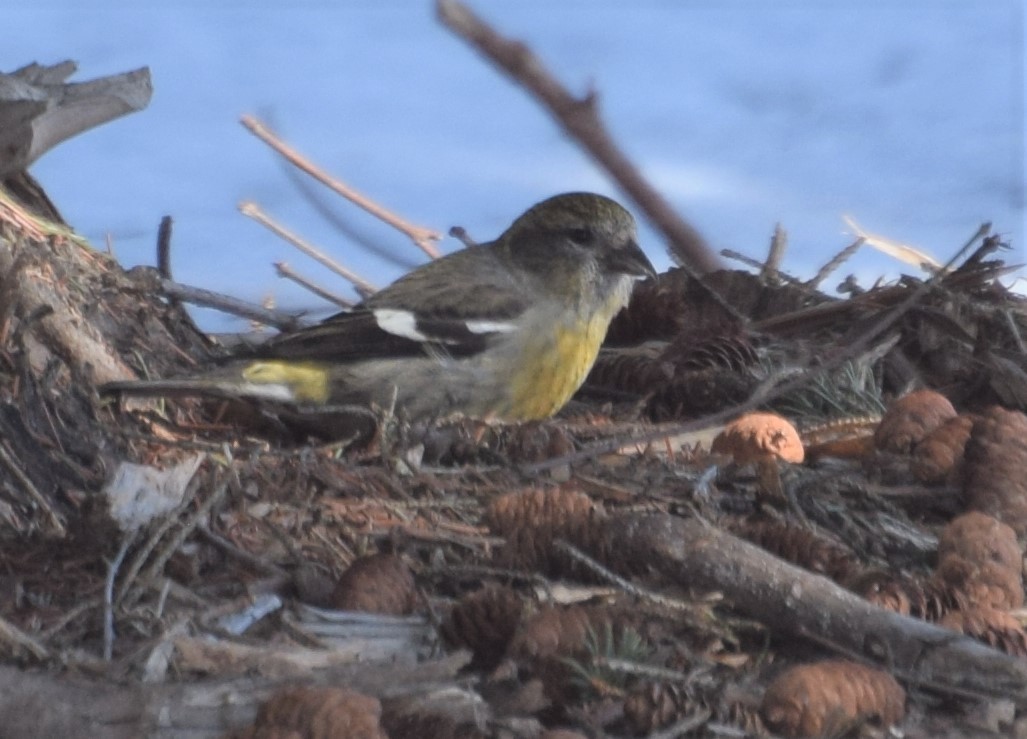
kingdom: Animalia
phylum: Chordata
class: Aves
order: Passeriformes
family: Fringillidae
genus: Loxia
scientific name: Loxia leucoptera
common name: Two-barred crossbill
